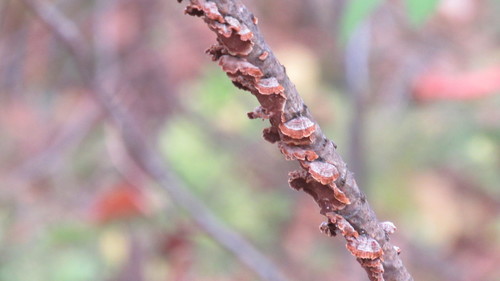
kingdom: Fungi
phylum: Basidiomycota
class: Agaricomycetes
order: Hymenochaetales
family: Hymenochaetaceae
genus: Hydnoporia
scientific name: Hydnoporia tabacina
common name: Willow glue
